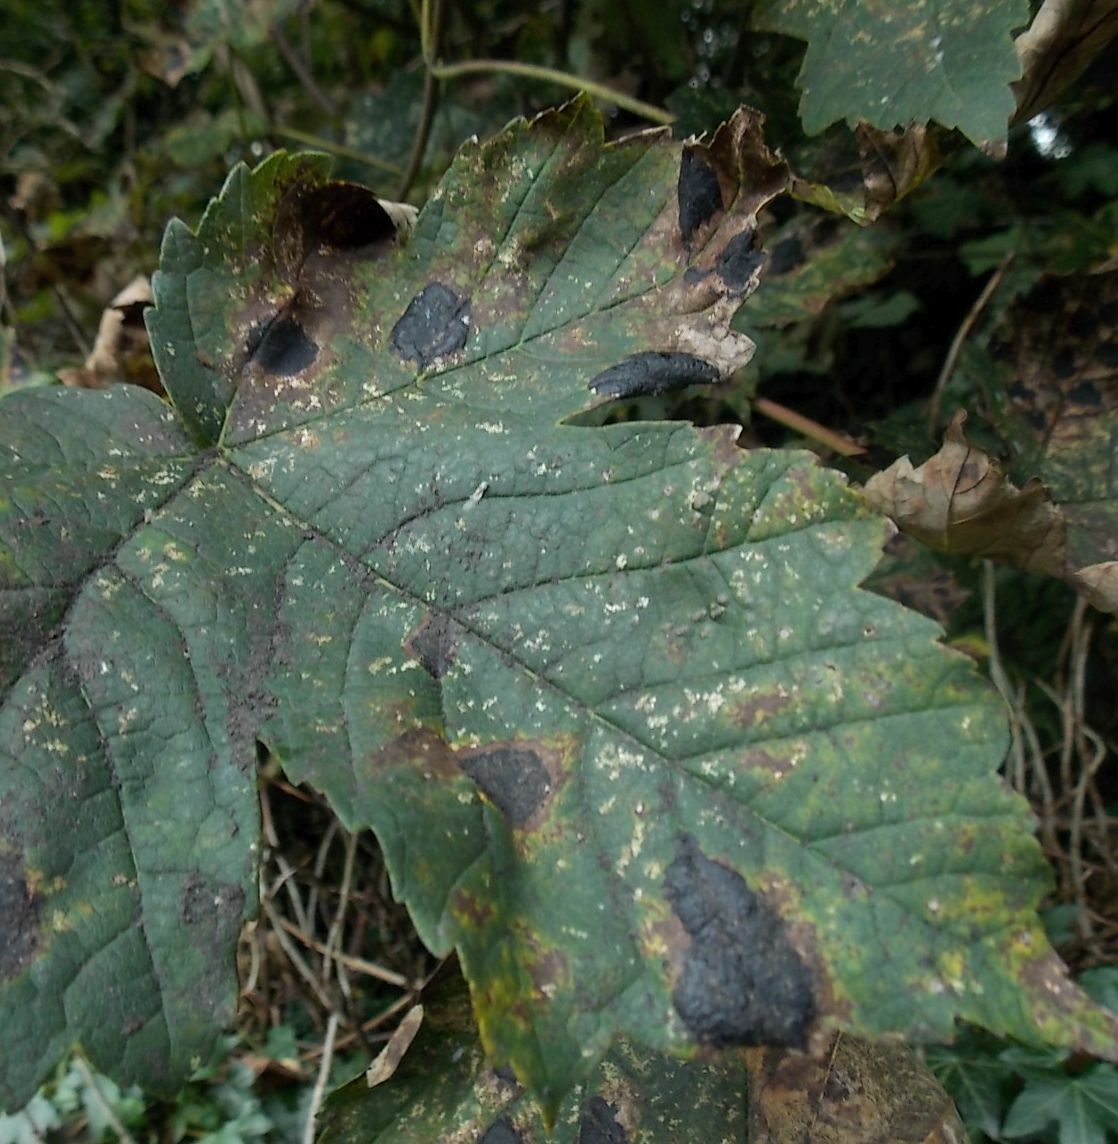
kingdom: Fungi
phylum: Ascomycota
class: Leotiomycetes
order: Rhytismatales
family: Rhytismataceae
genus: Rhytisma
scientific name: Rhytisma acerinum
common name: European tar spot
